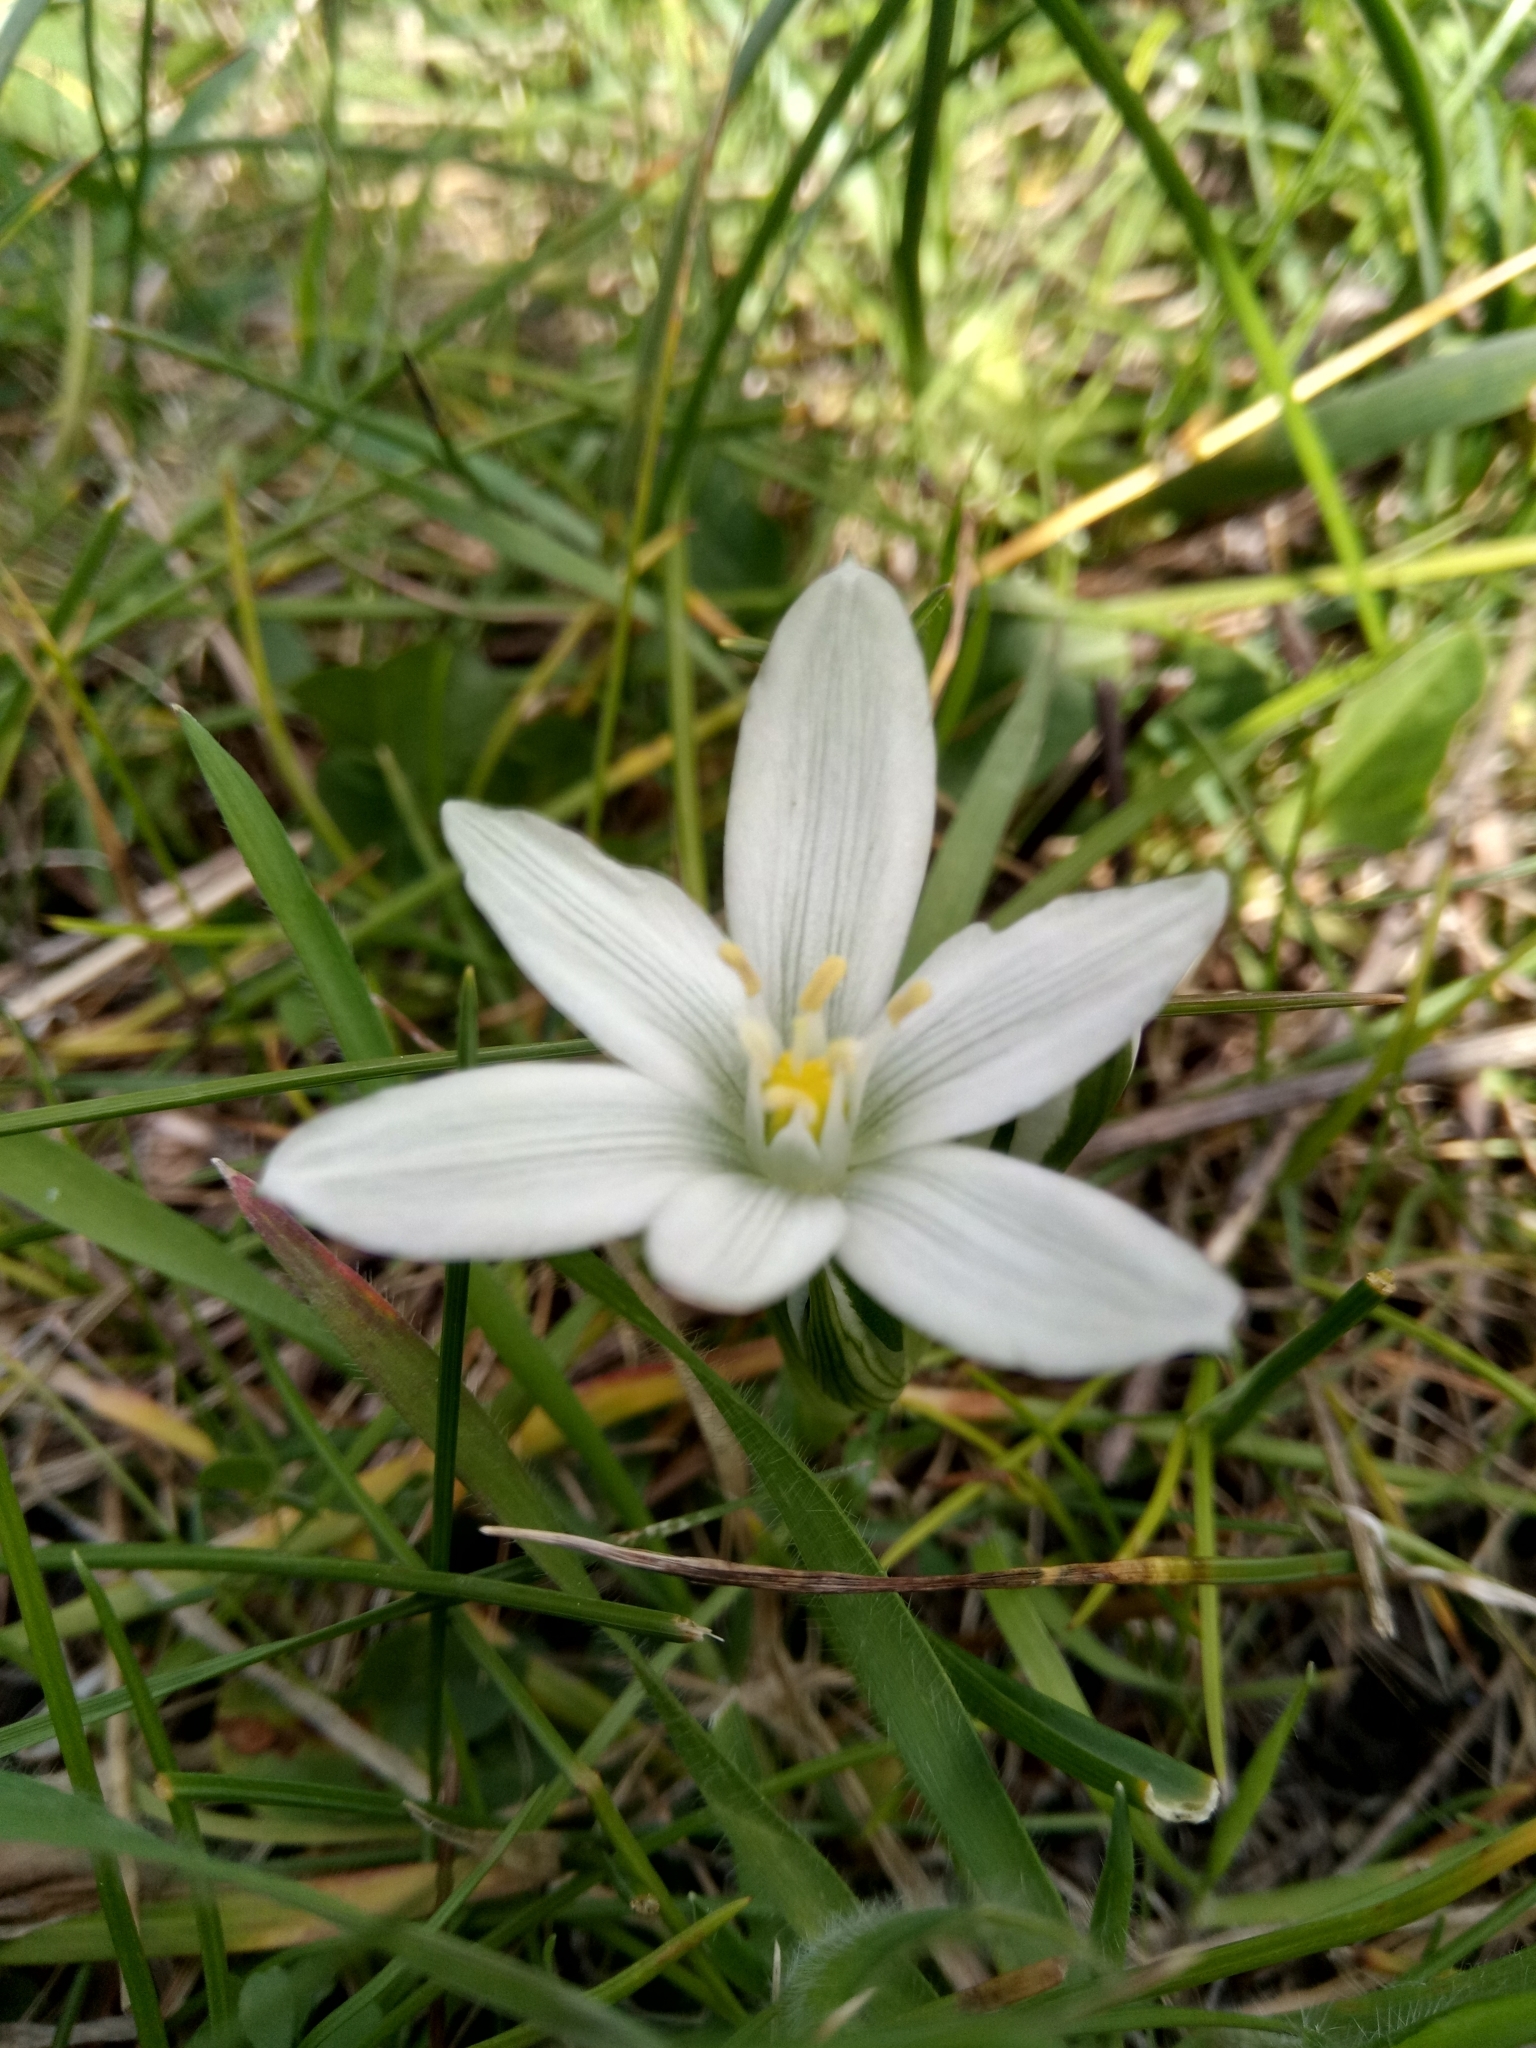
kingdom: Plantae
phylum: Tracheophyta
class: Liliopsida
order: Asparagales
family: Asparagaceae
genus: Ornithogalum
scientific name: Ornithogalum baeticum
